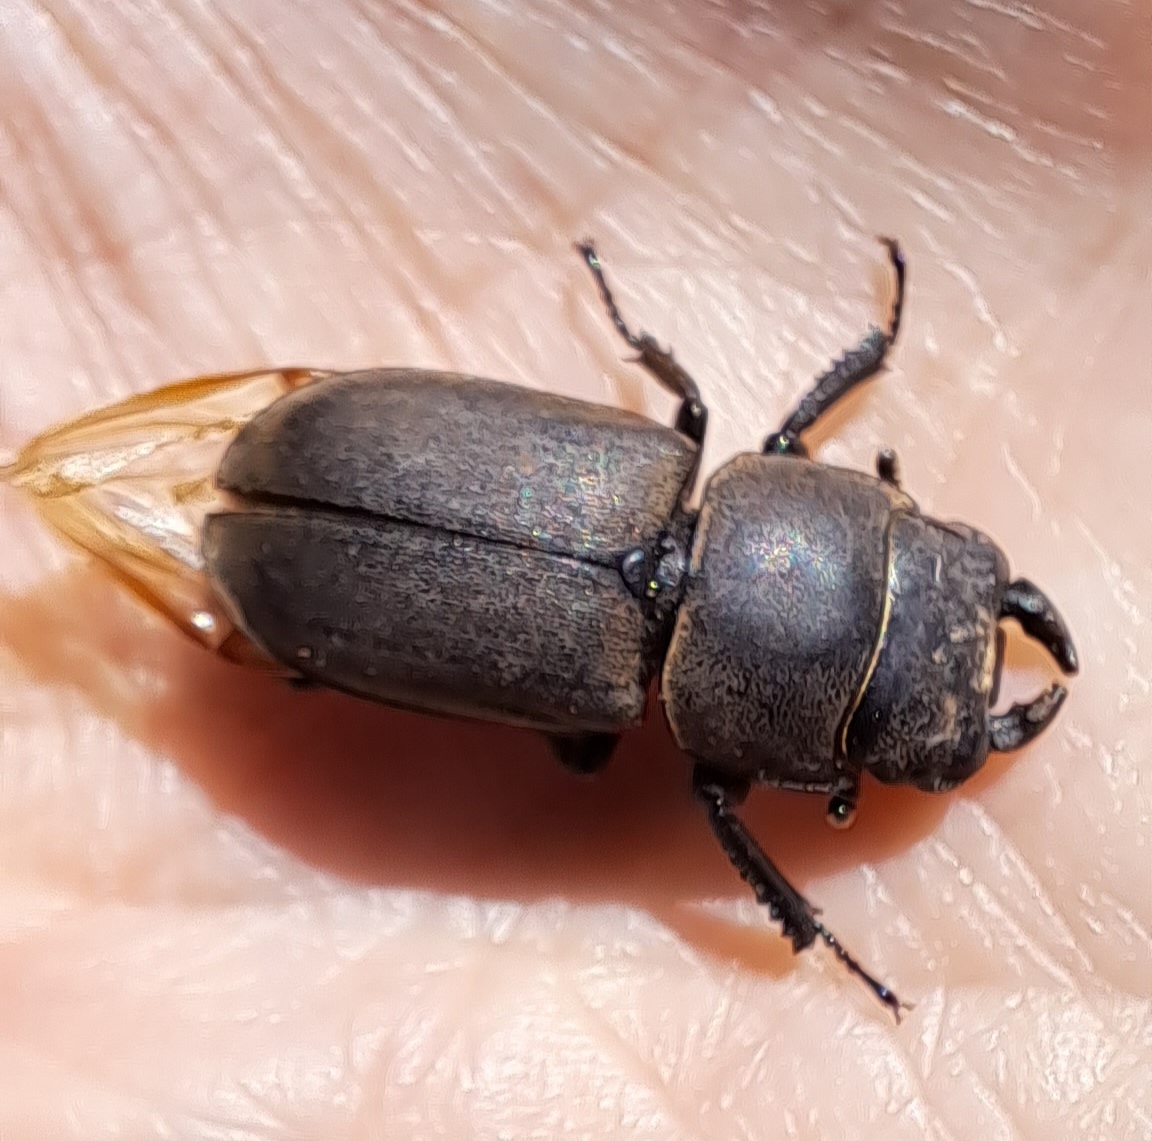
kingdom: Animalia
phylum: Arthropoda
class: Insecta
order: Coleoptera
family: Lucanidae
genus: Dorcus
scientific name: Dorcus parallelipipedus
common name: Lesser stag beetle
